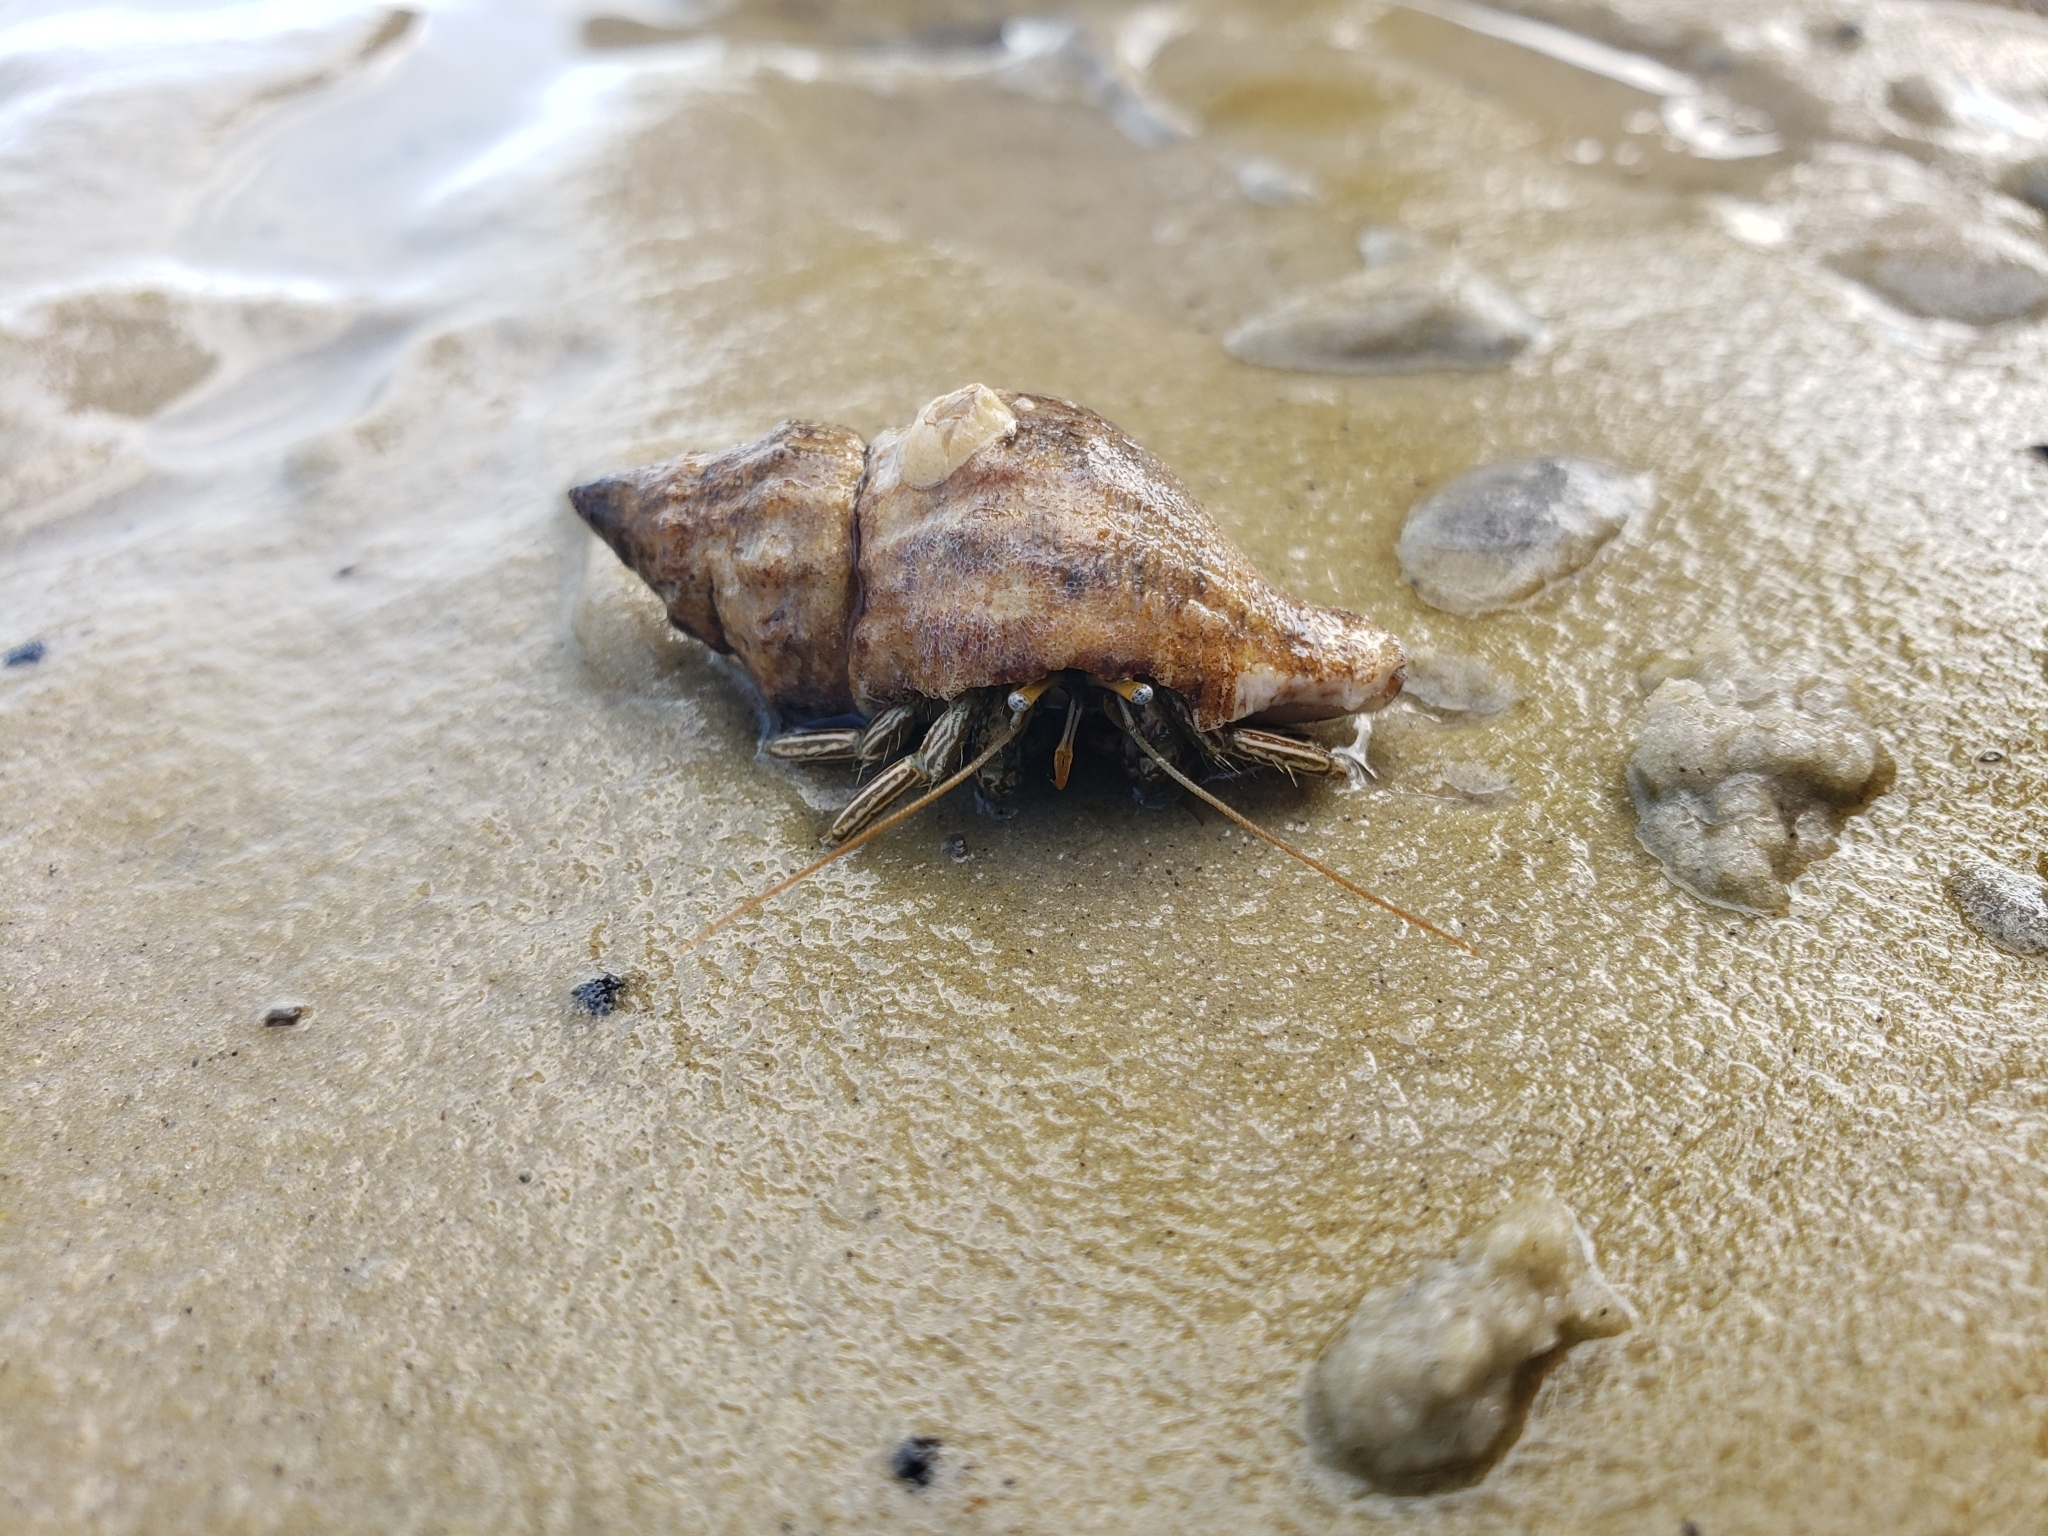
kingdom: Animalia
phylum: Arthropoda
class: Malacostraca
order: Decapoda
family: Diogenidae
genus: Clibanarius
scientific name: Clibanarius vittatus
